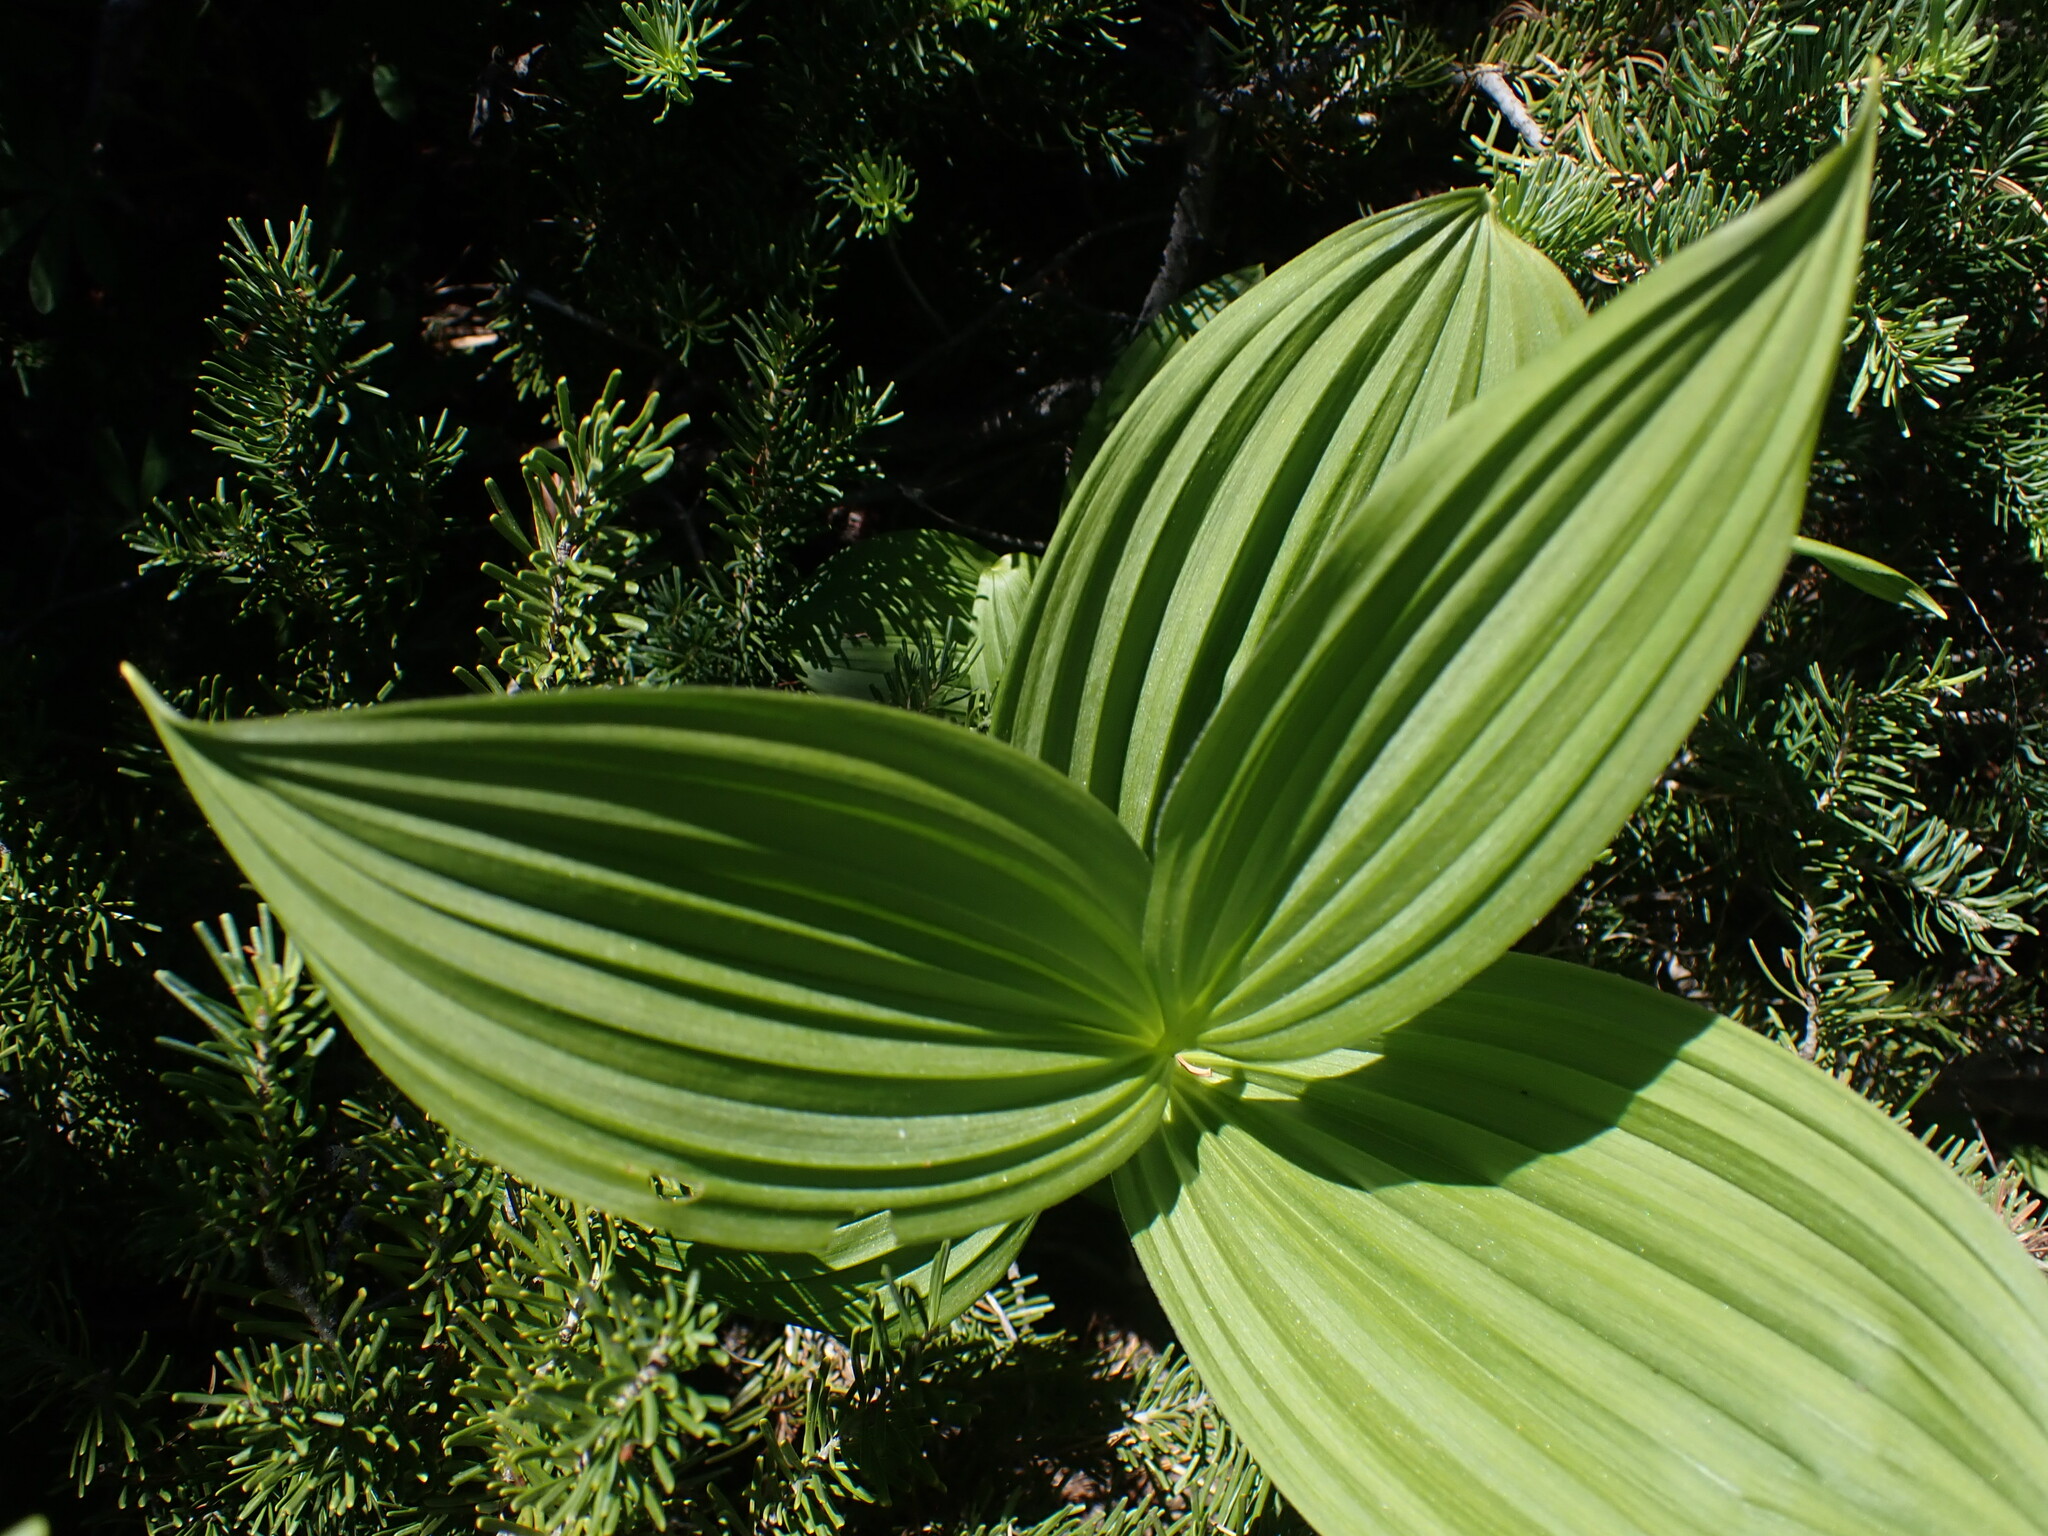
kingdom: Plantae
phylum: Tracheophyta
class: Liliopsida
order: Liliales
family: Melanthiaceae
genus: Veratrum
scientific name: Veratrum viride
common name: American false hellebore
